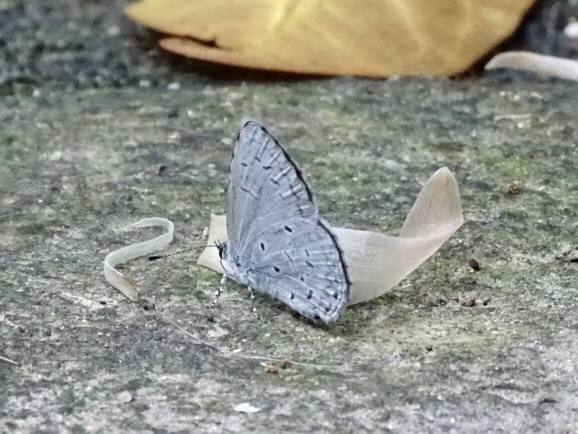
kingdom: Animalia
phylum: Arthropoda
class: Insecta
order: Lepidoptera
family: Lycaenidae
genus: Celastrina
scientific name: Celastrina lavendularis
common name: Plain hedge blue
